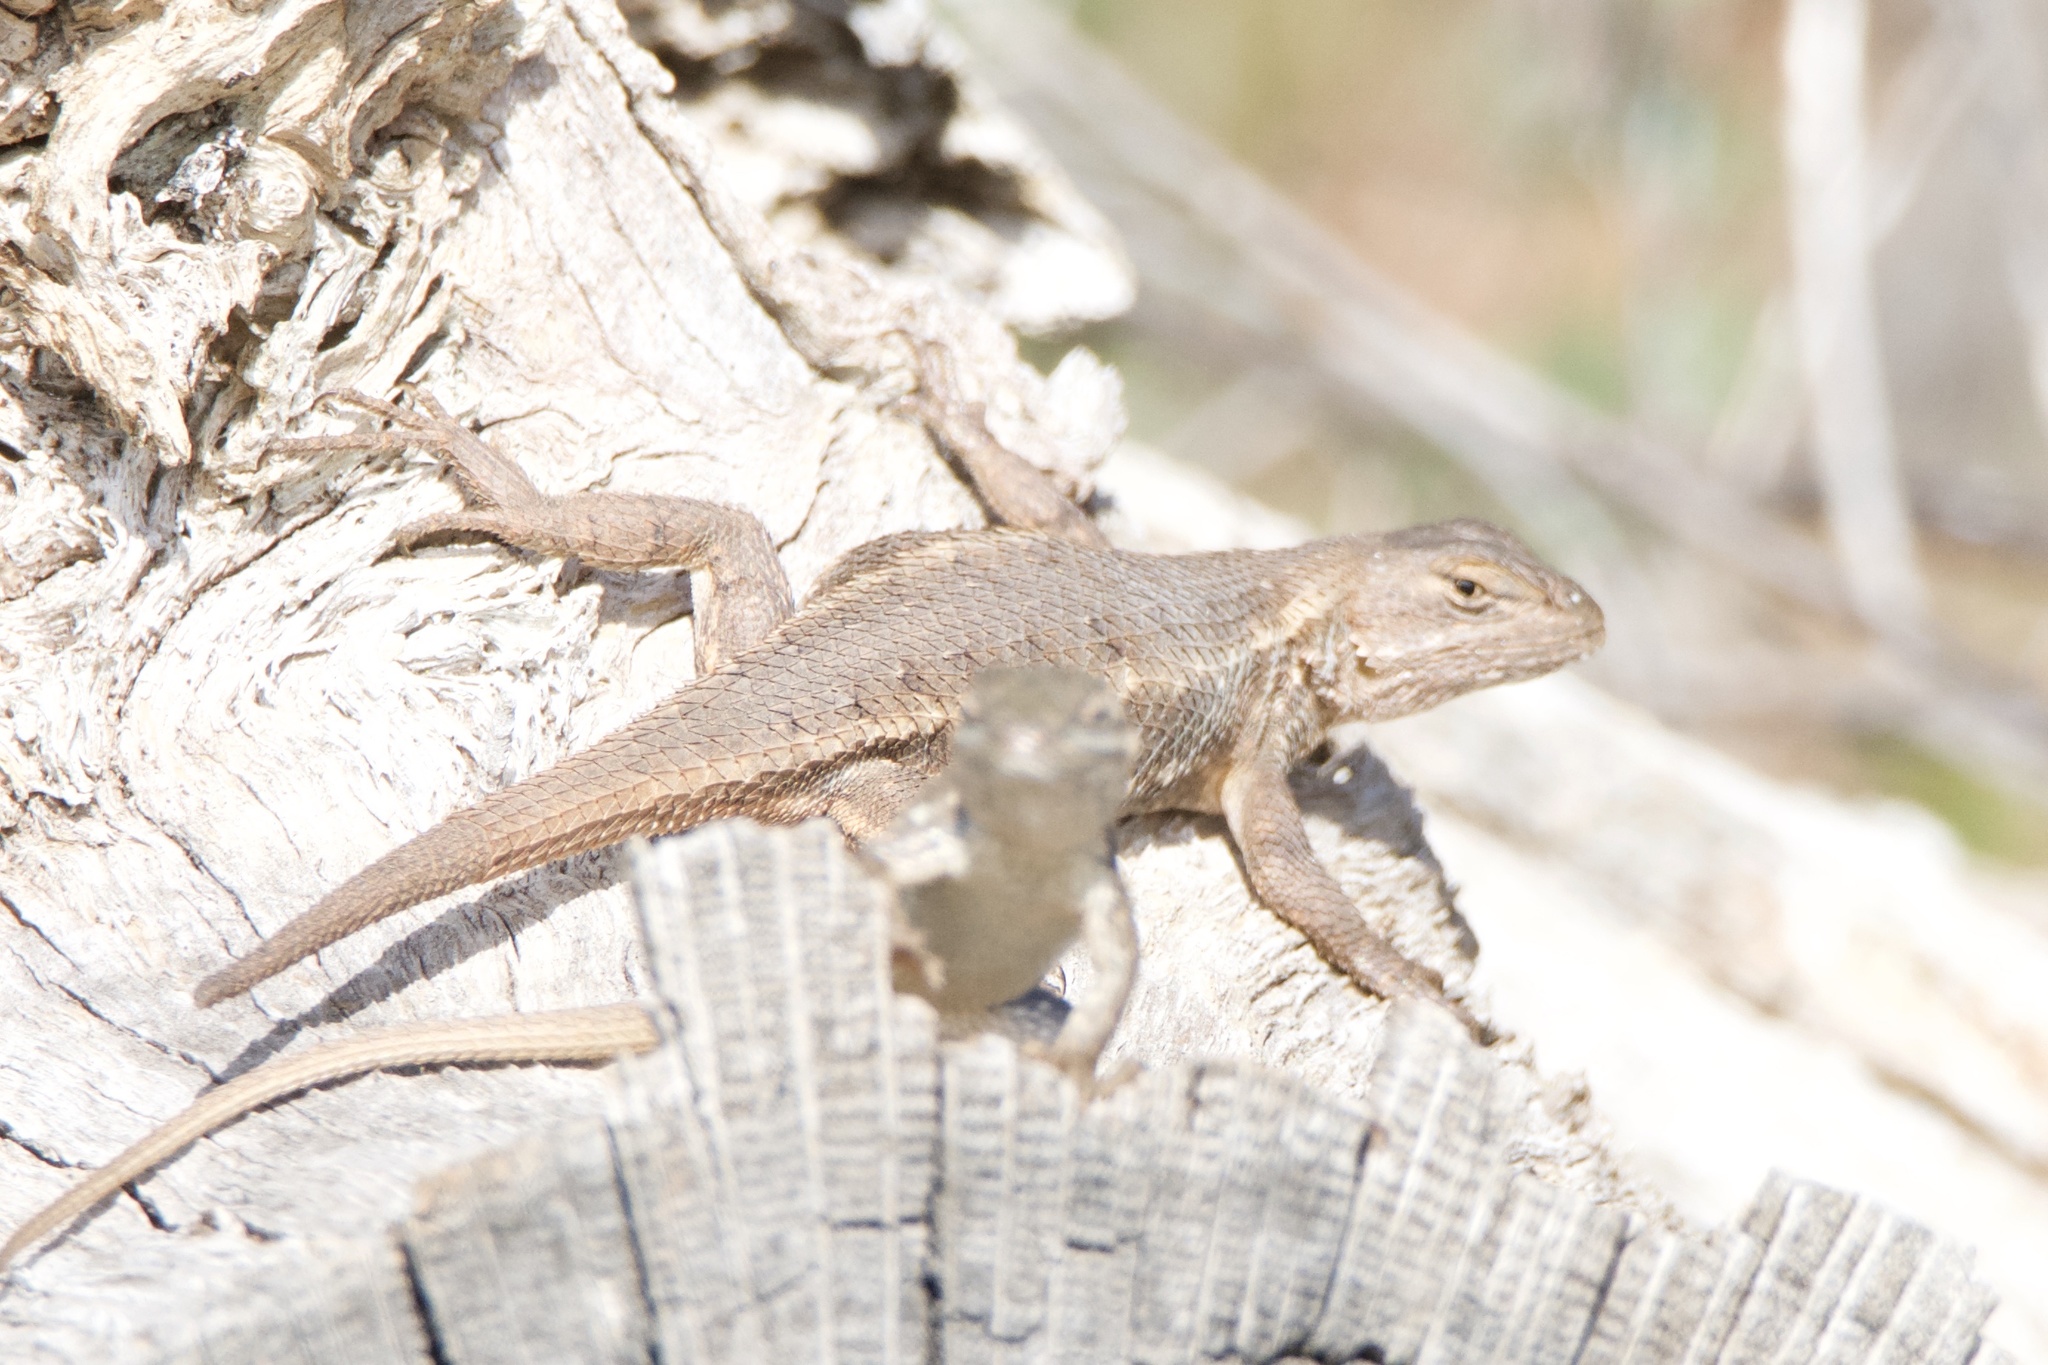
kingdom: Animalia
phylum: Chordata
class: Squamata
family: Phrynosomatidae
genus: Sceloporus
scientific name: Sceloporus consobrinus
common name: Southern prairie lizard
